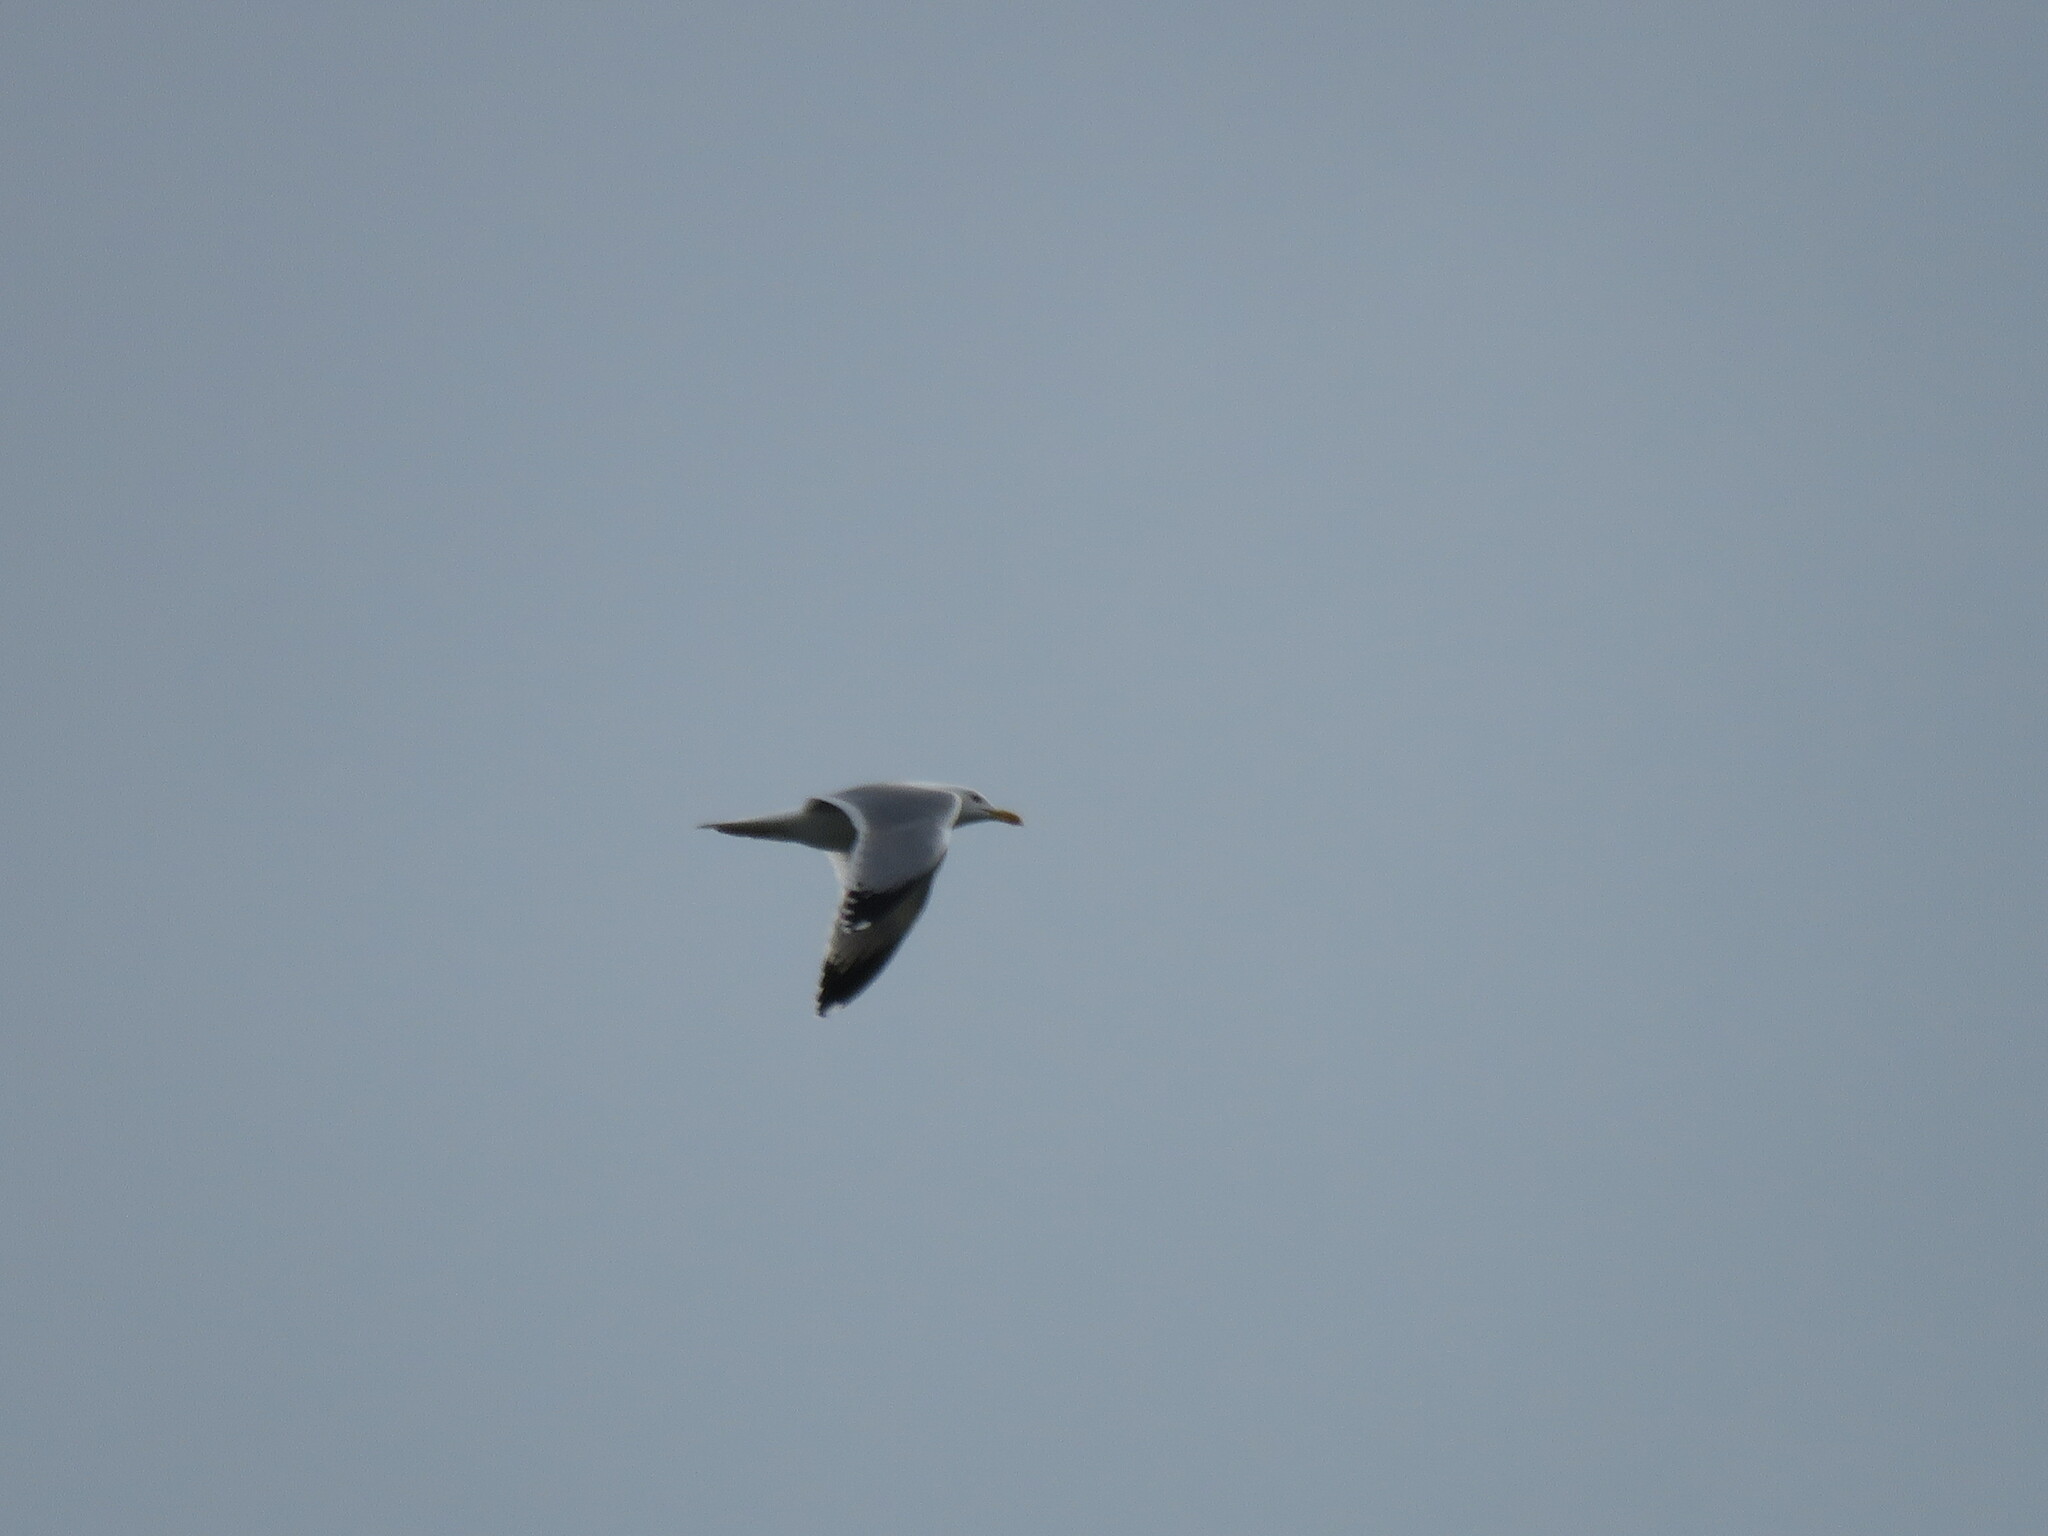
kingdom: Animalia
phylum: Chordata
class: Aves
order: Charadriiformes
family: Laridae
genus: Larus
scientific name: Larus michahellis
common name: Yellow-legged gull
